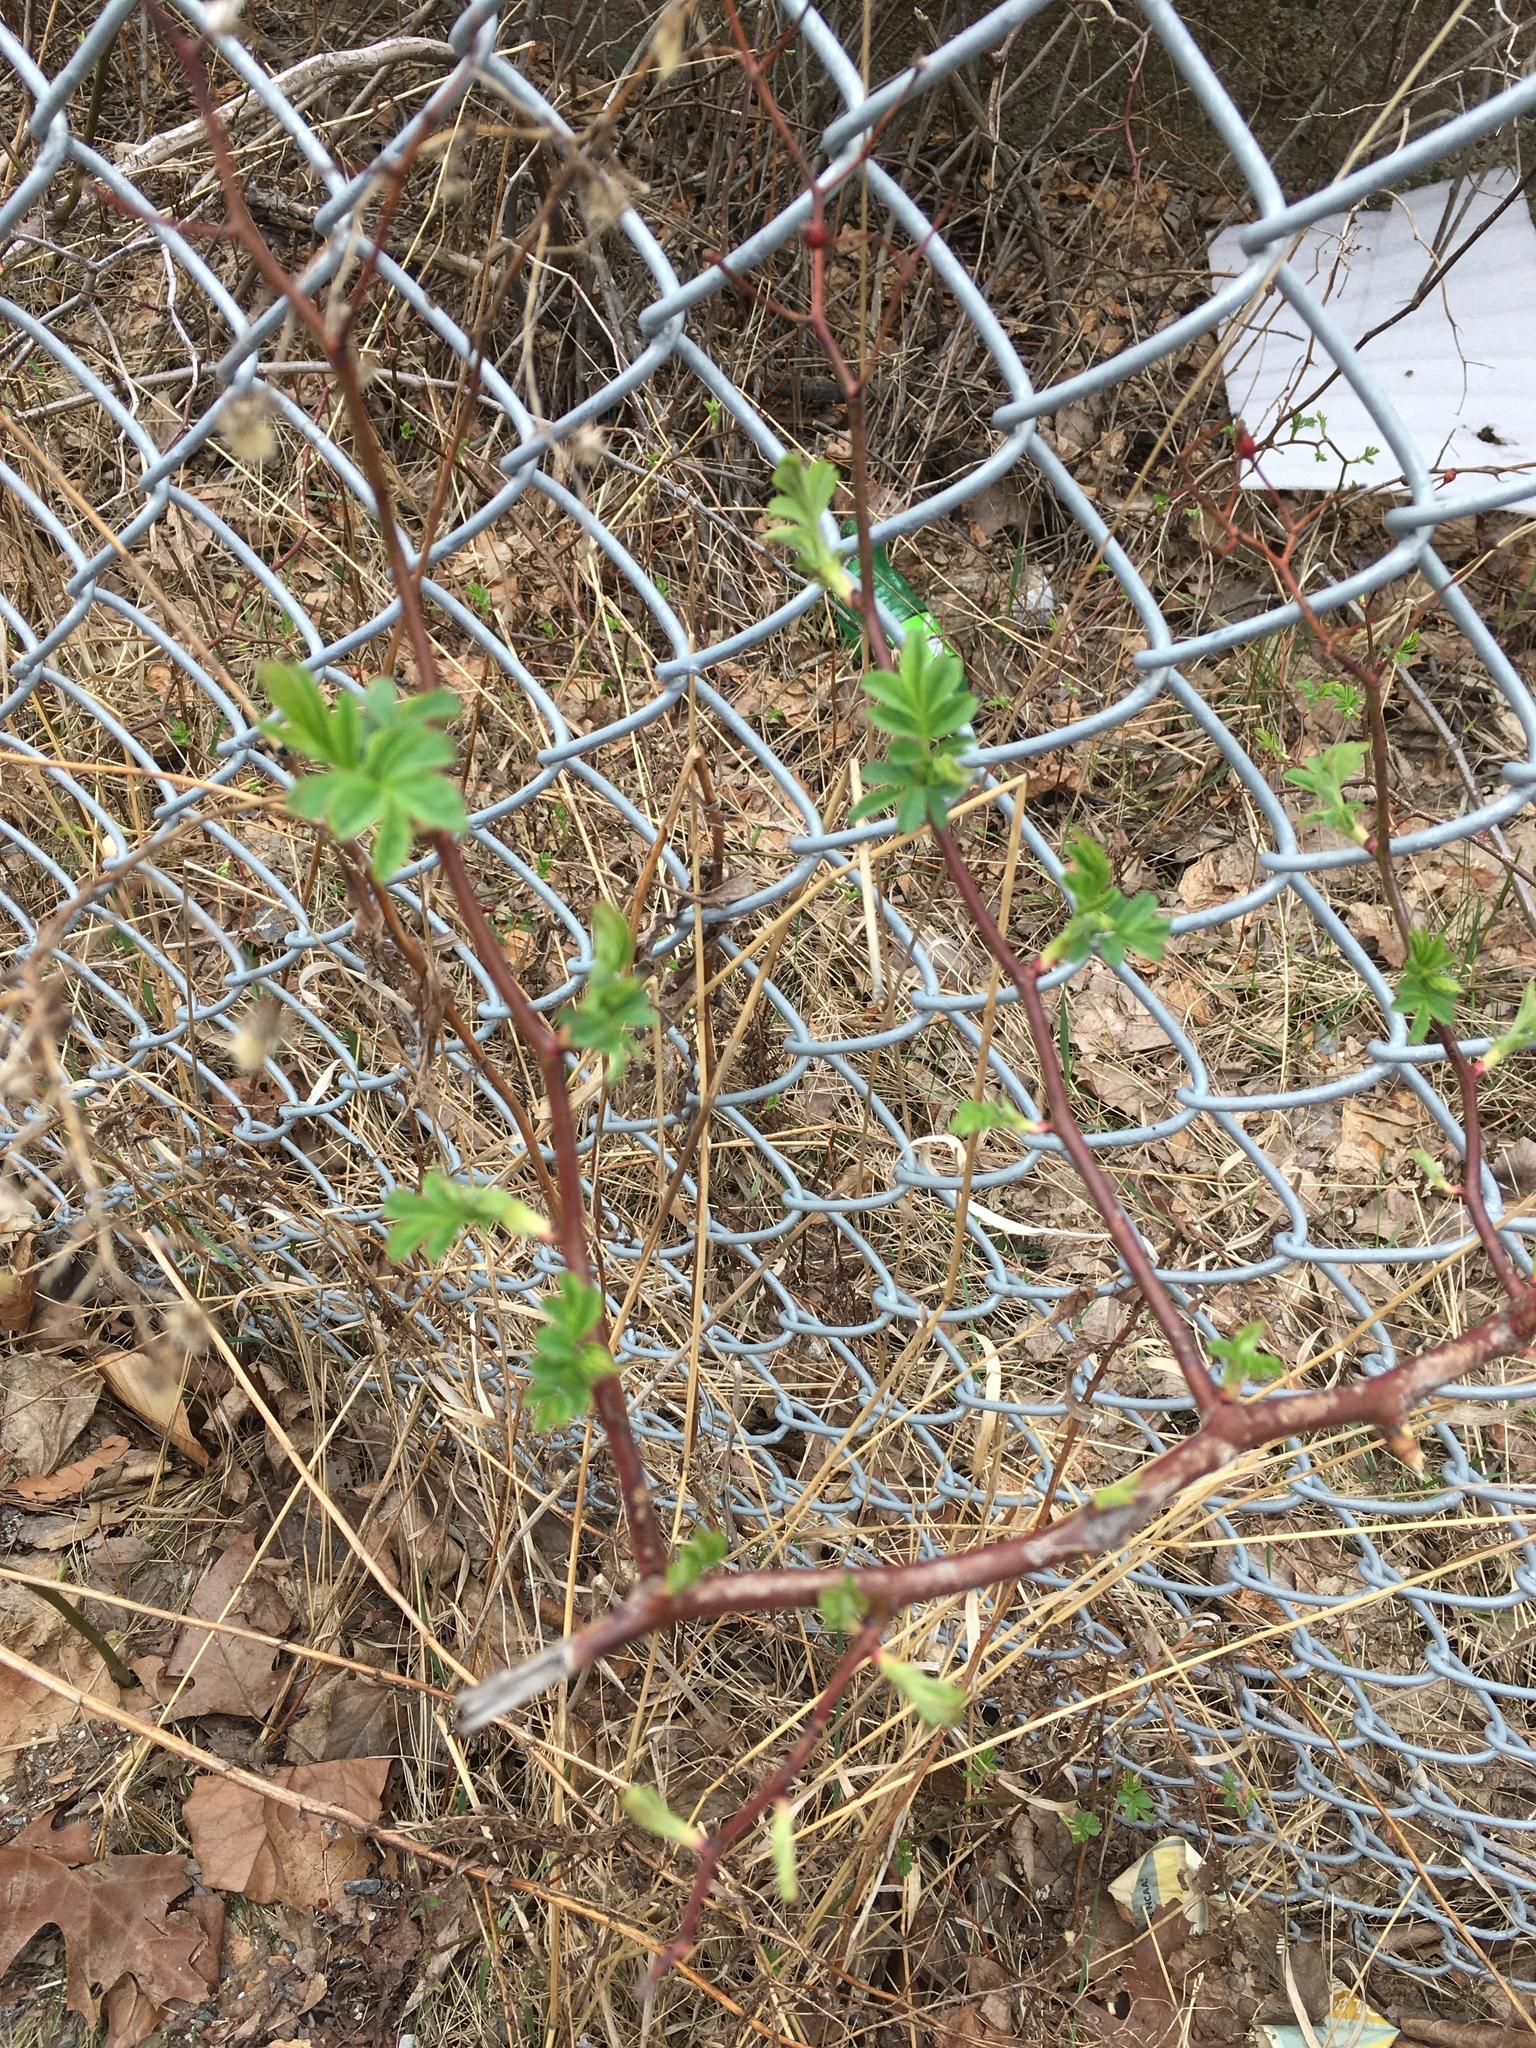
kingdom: Plantae
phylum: Tracheophyta
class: Magnoliopsida
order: Rosales
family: Rosaceae
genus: Rosa
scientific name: Rosa multiflora
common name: Multiflora rose
